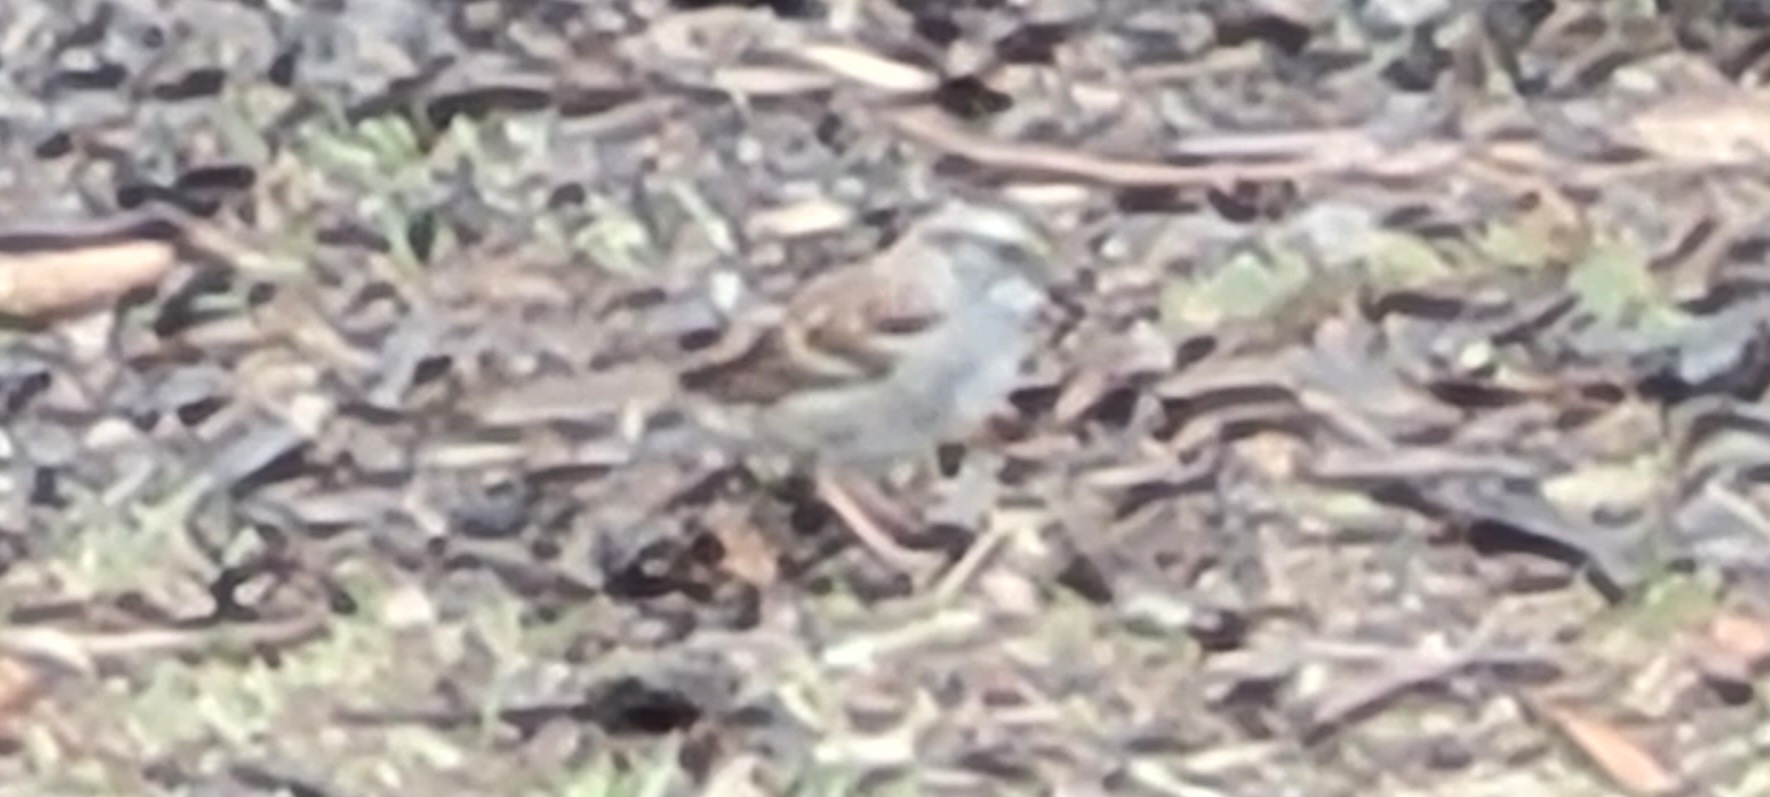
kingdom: Animalia
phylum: Chordata
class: Aves
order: Passeriformes
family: Passerellidae
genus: Zonotrichia
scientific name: Zonotrichia albicollis
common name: White-throated sparrow
